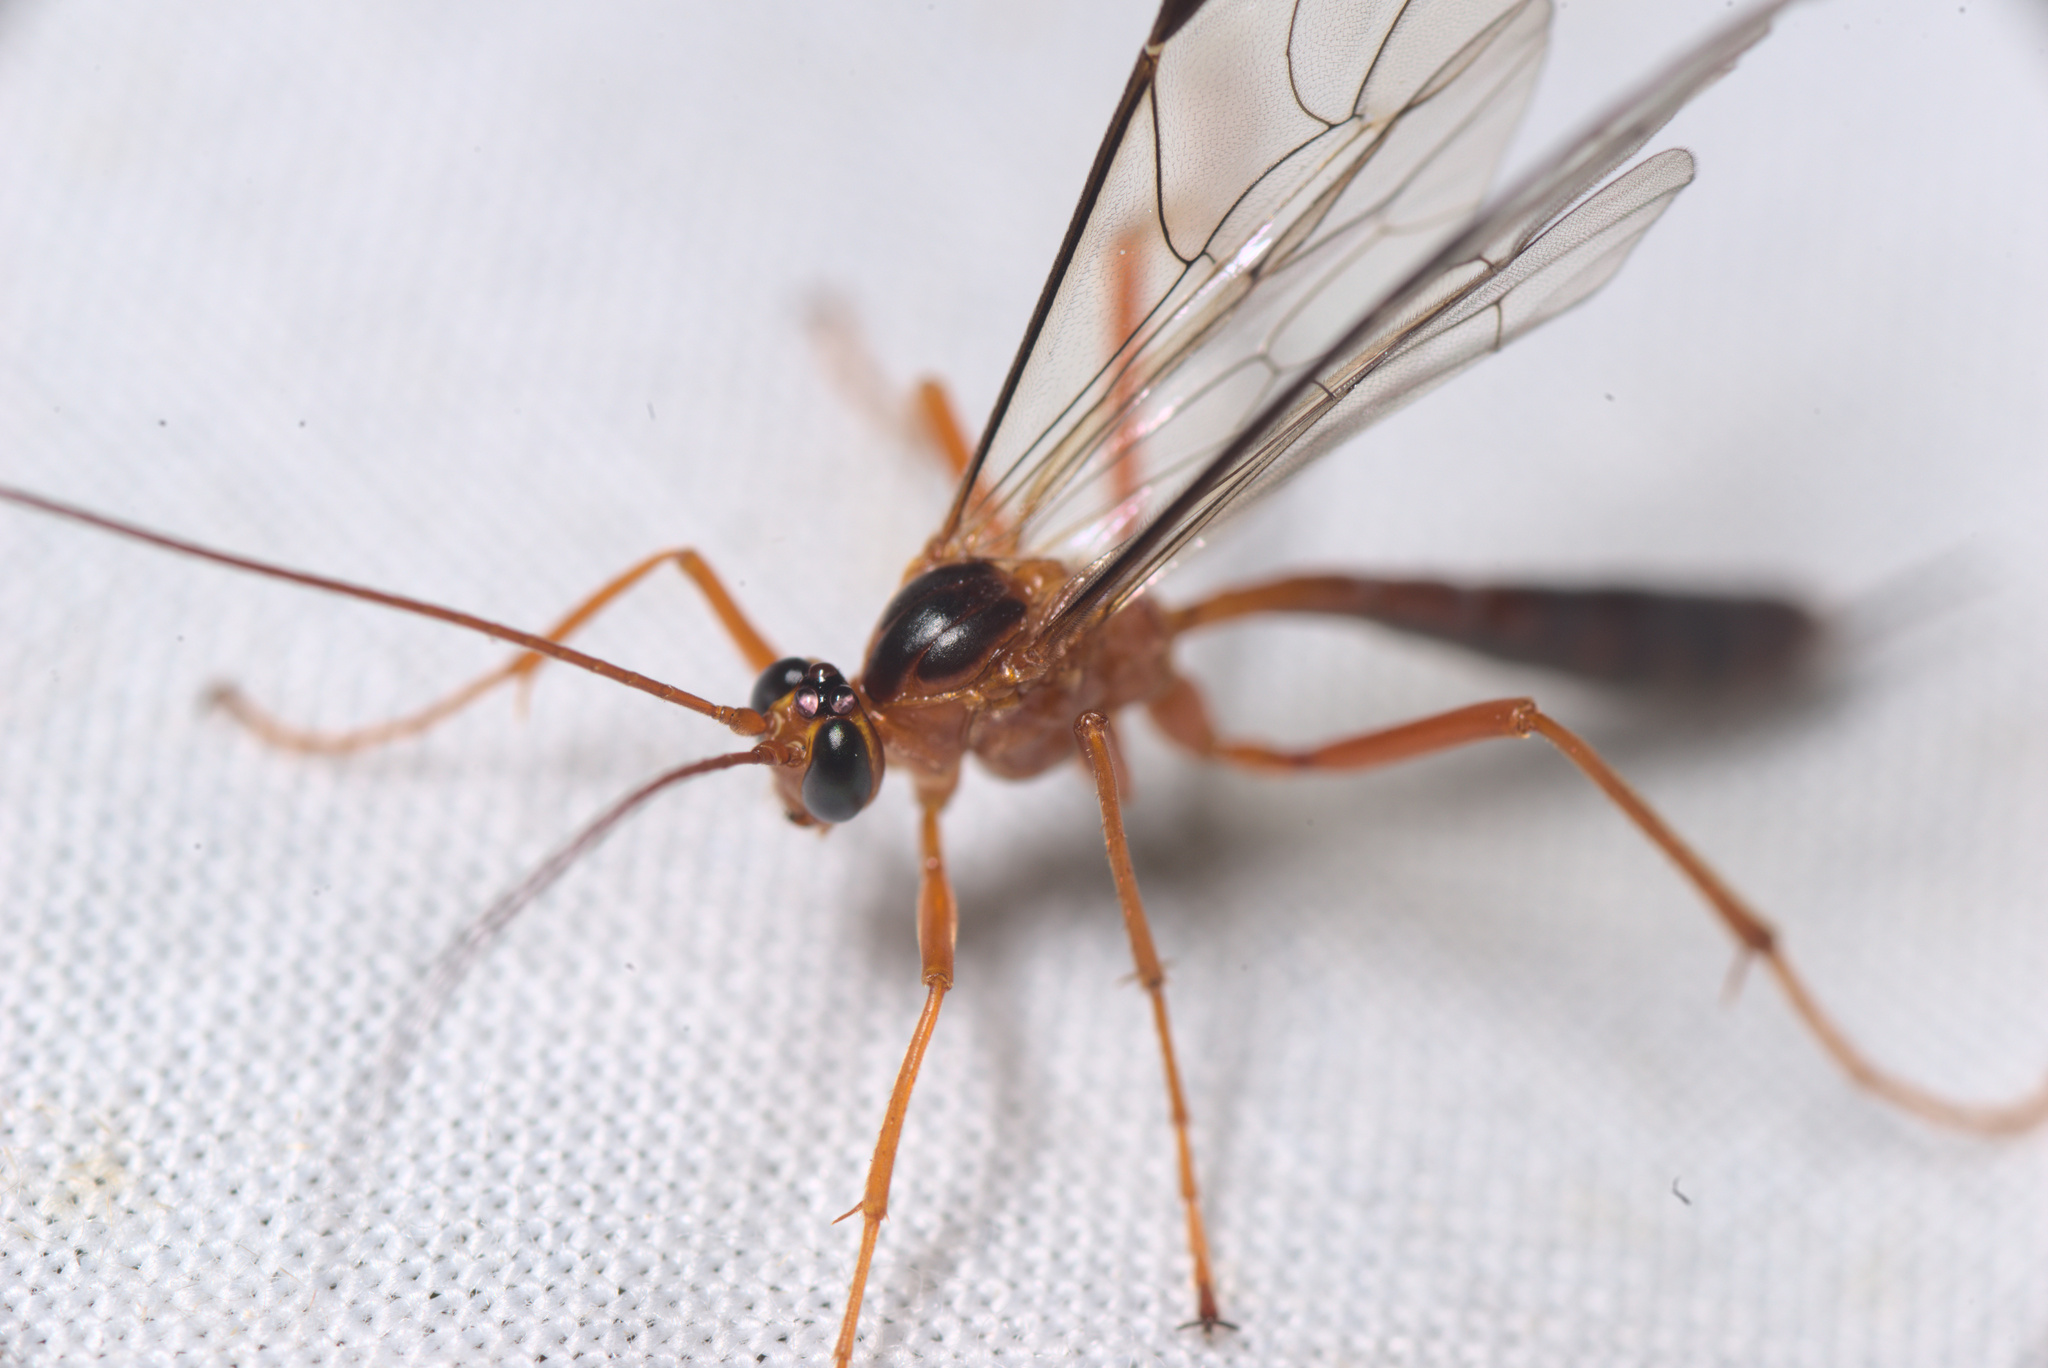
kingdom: Animalia
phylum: Arthropoda
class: Insecta
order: Hymenoptera
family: Ichneumonidae
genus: Netelia
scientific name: Netelia ephippiata
